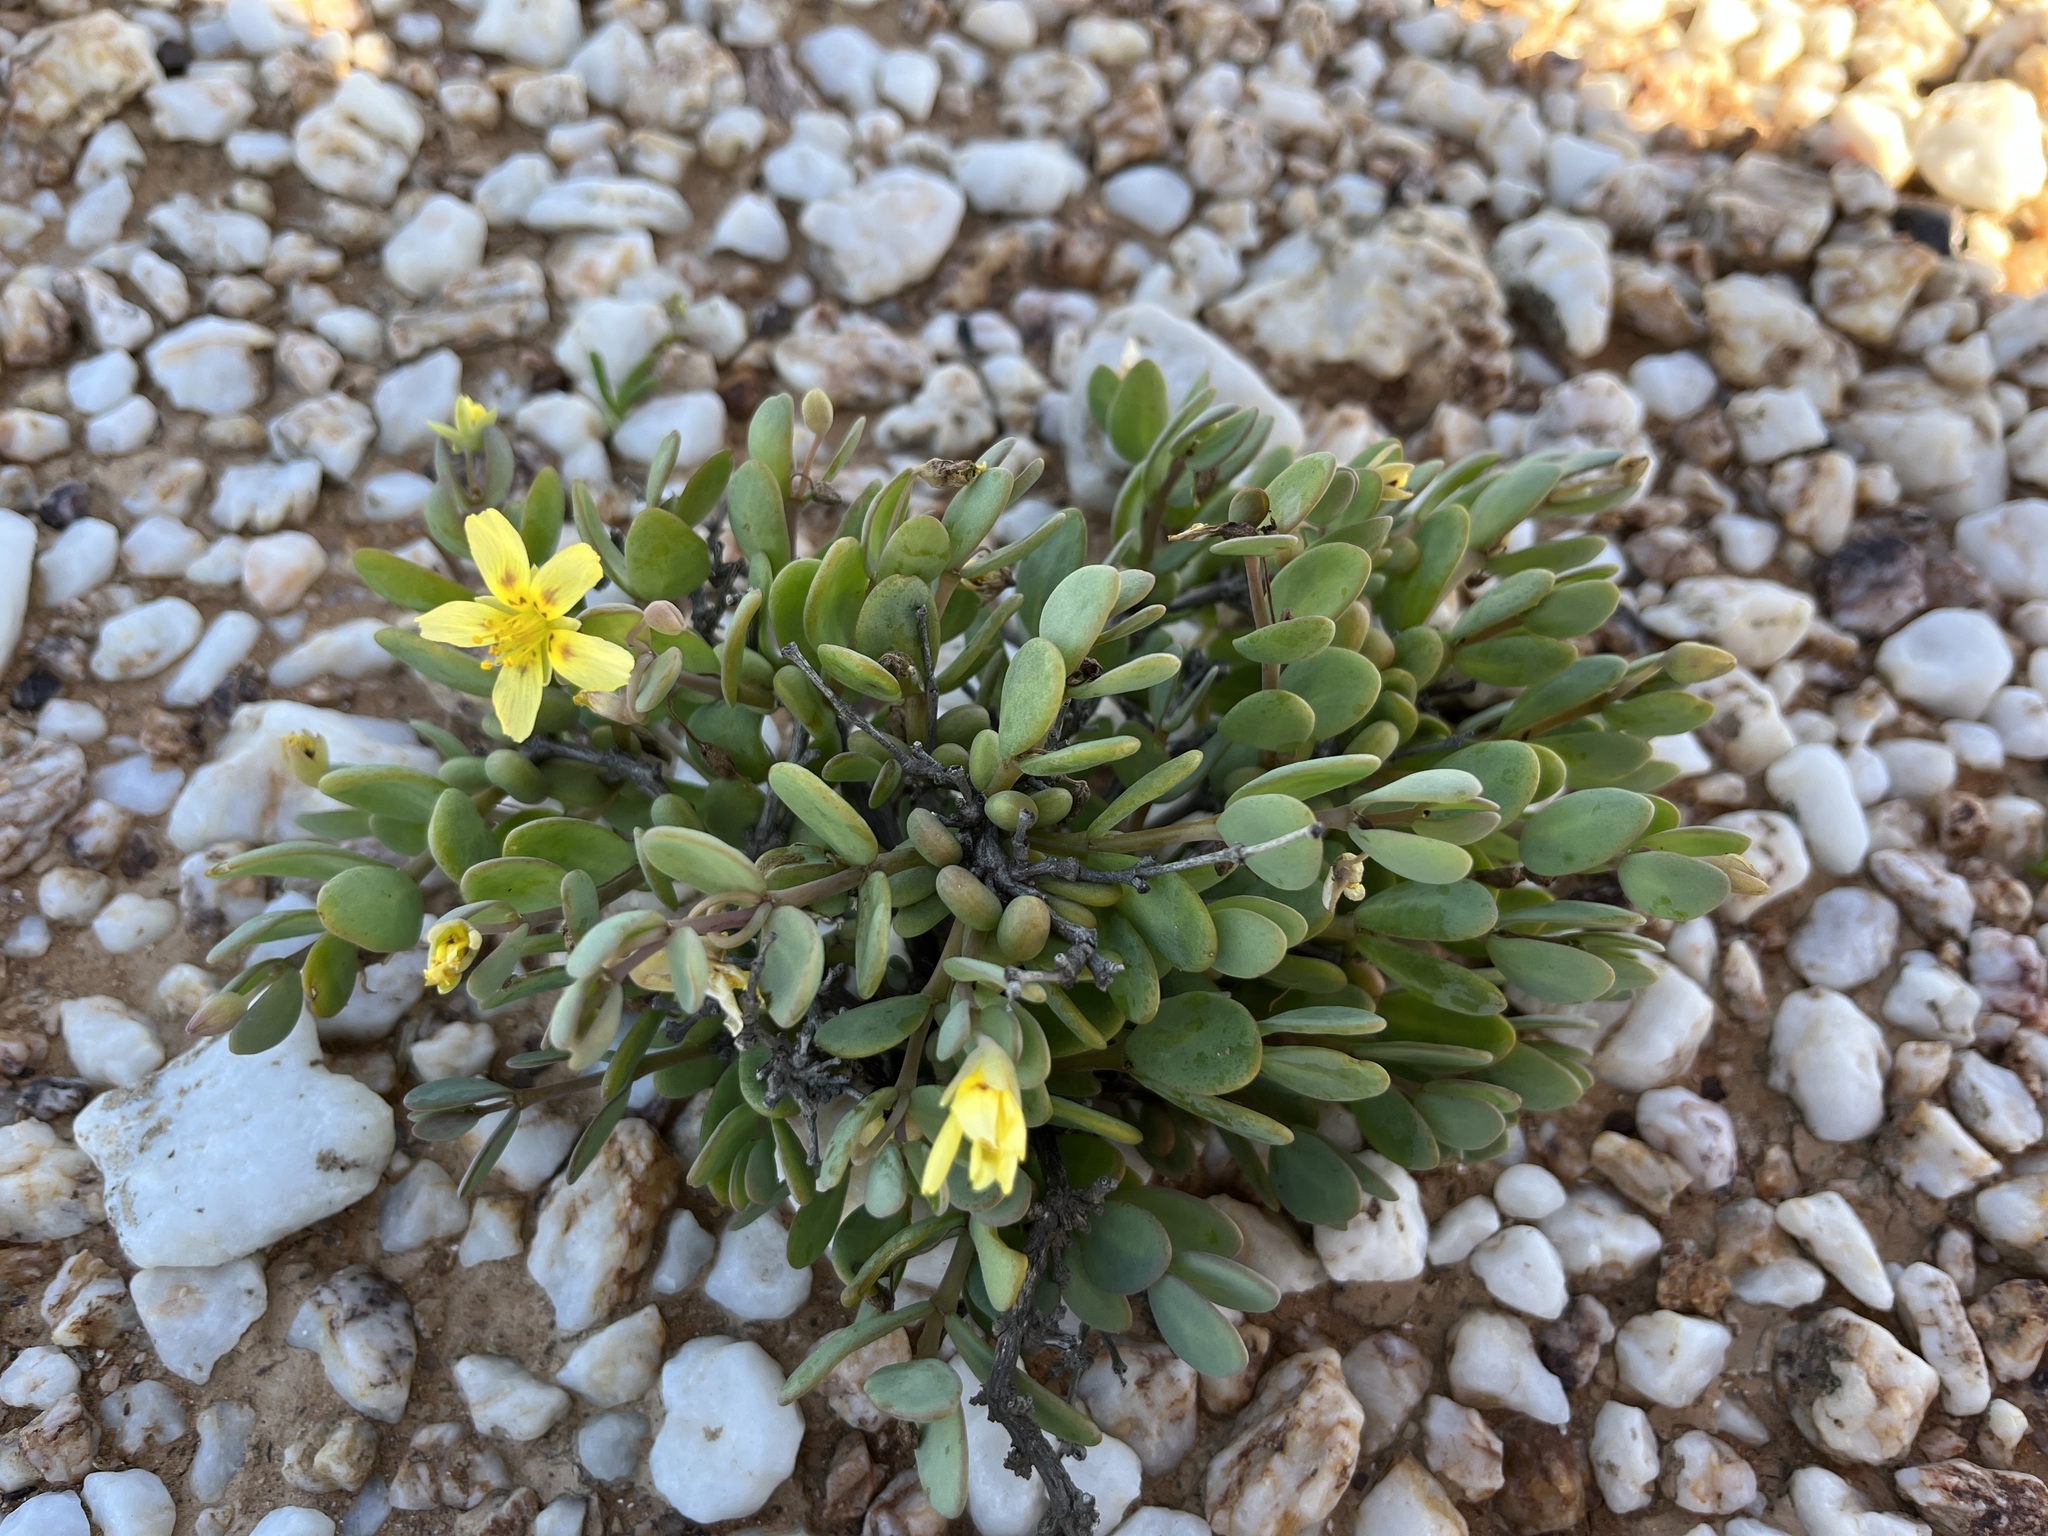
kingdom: Plantae
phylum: Tracheophyta
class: Magnoliopsida
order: Zygophyllales
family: Zygophyllaceae
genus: Roepera
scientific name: Roepera cordifolia
